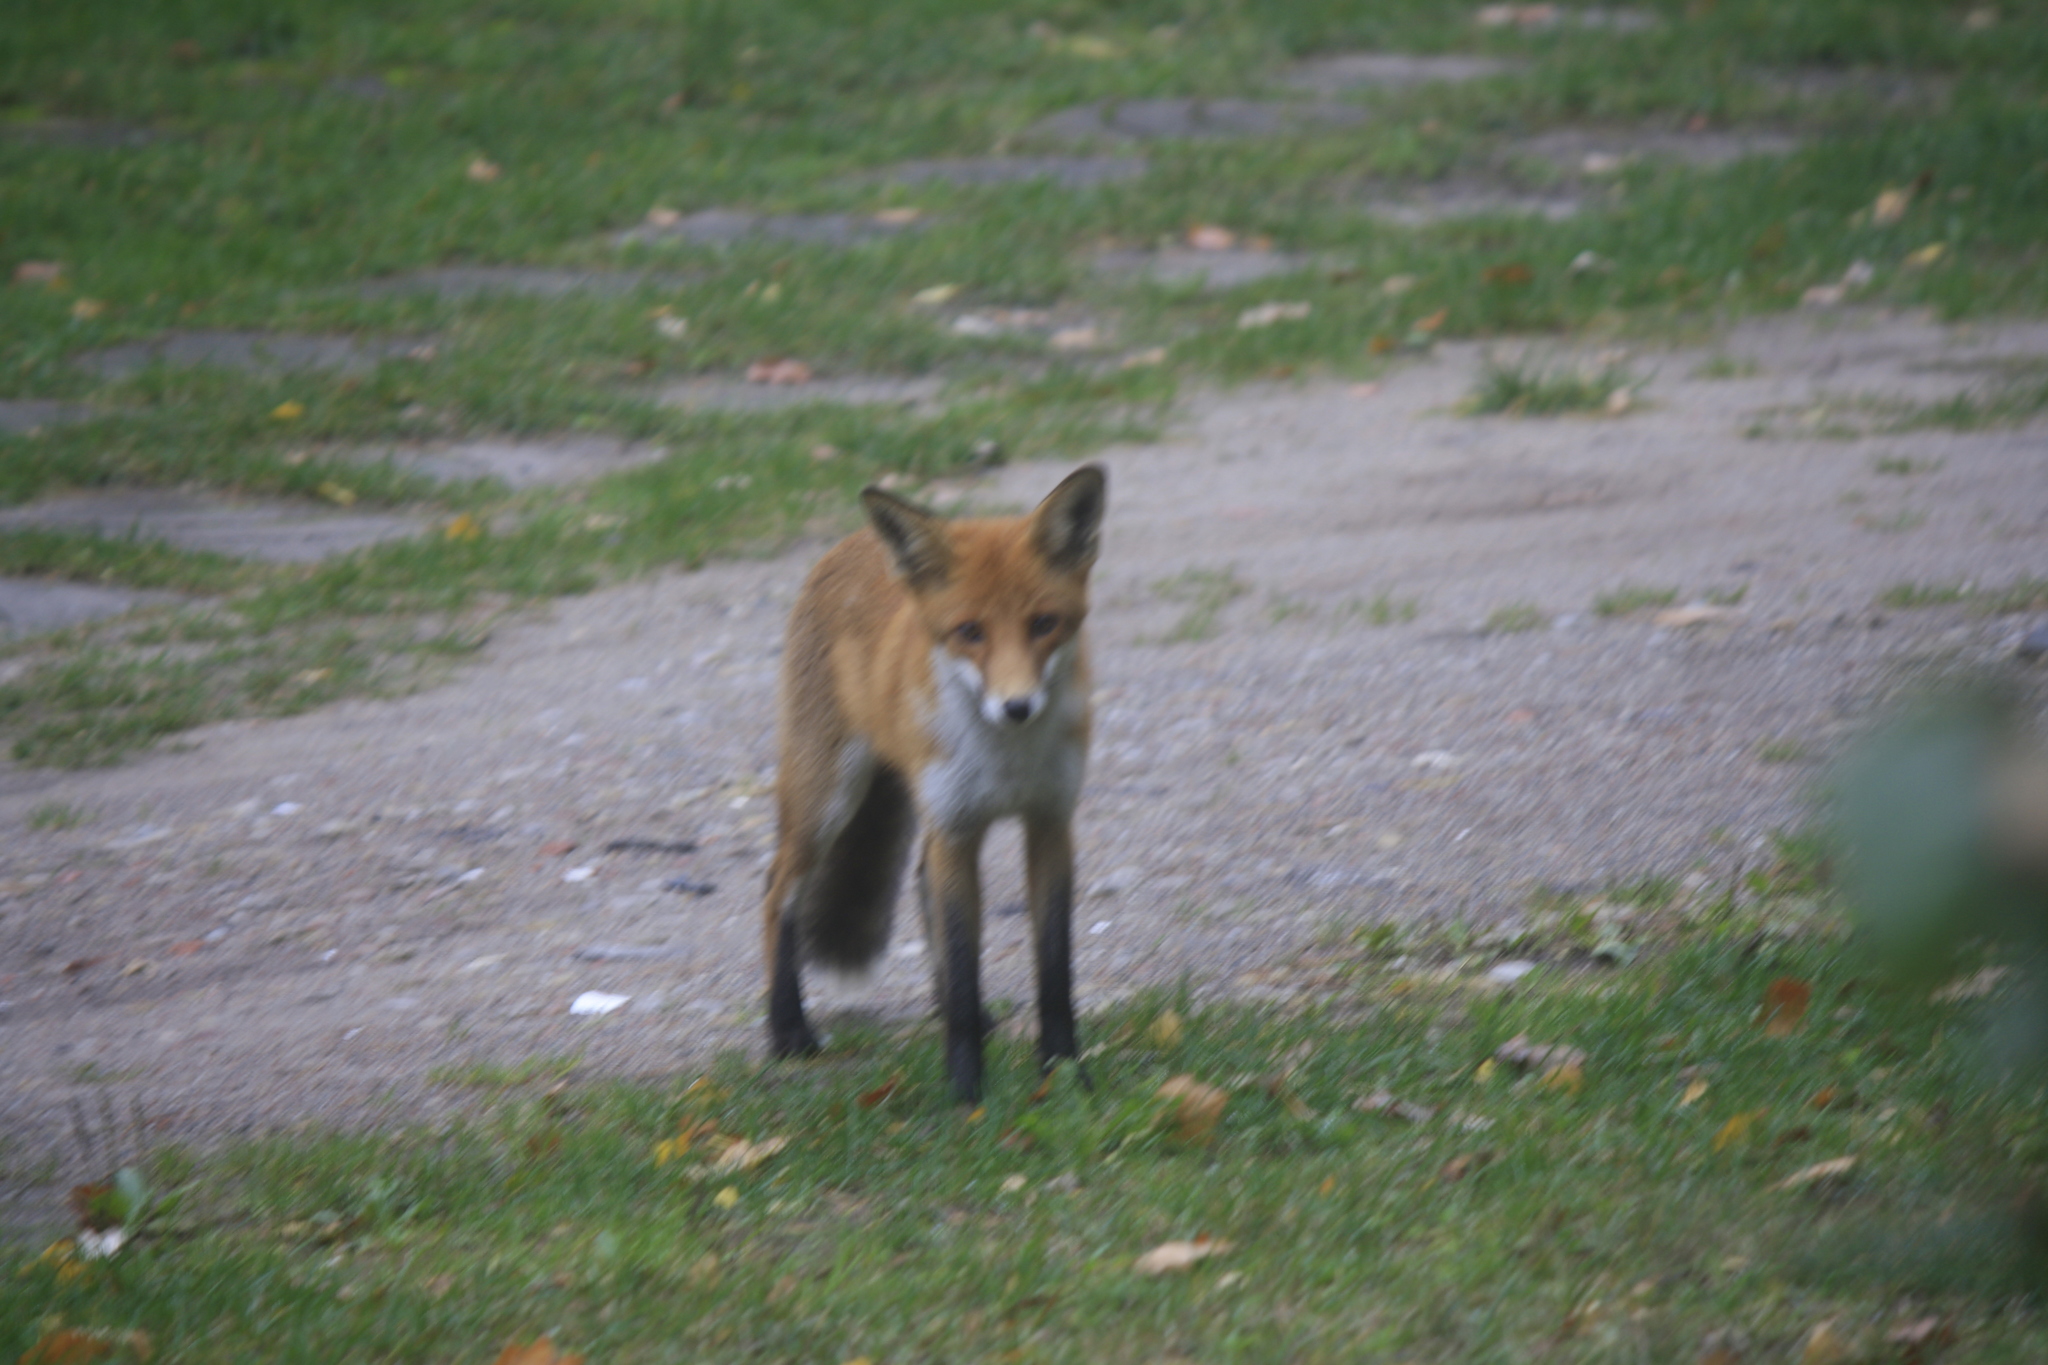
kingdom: Animalia
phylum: Chordata
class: Mammalia
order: Carnivora
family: Canidae
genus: Vulpes
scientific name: Vulpes vulpes
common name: Red fox
